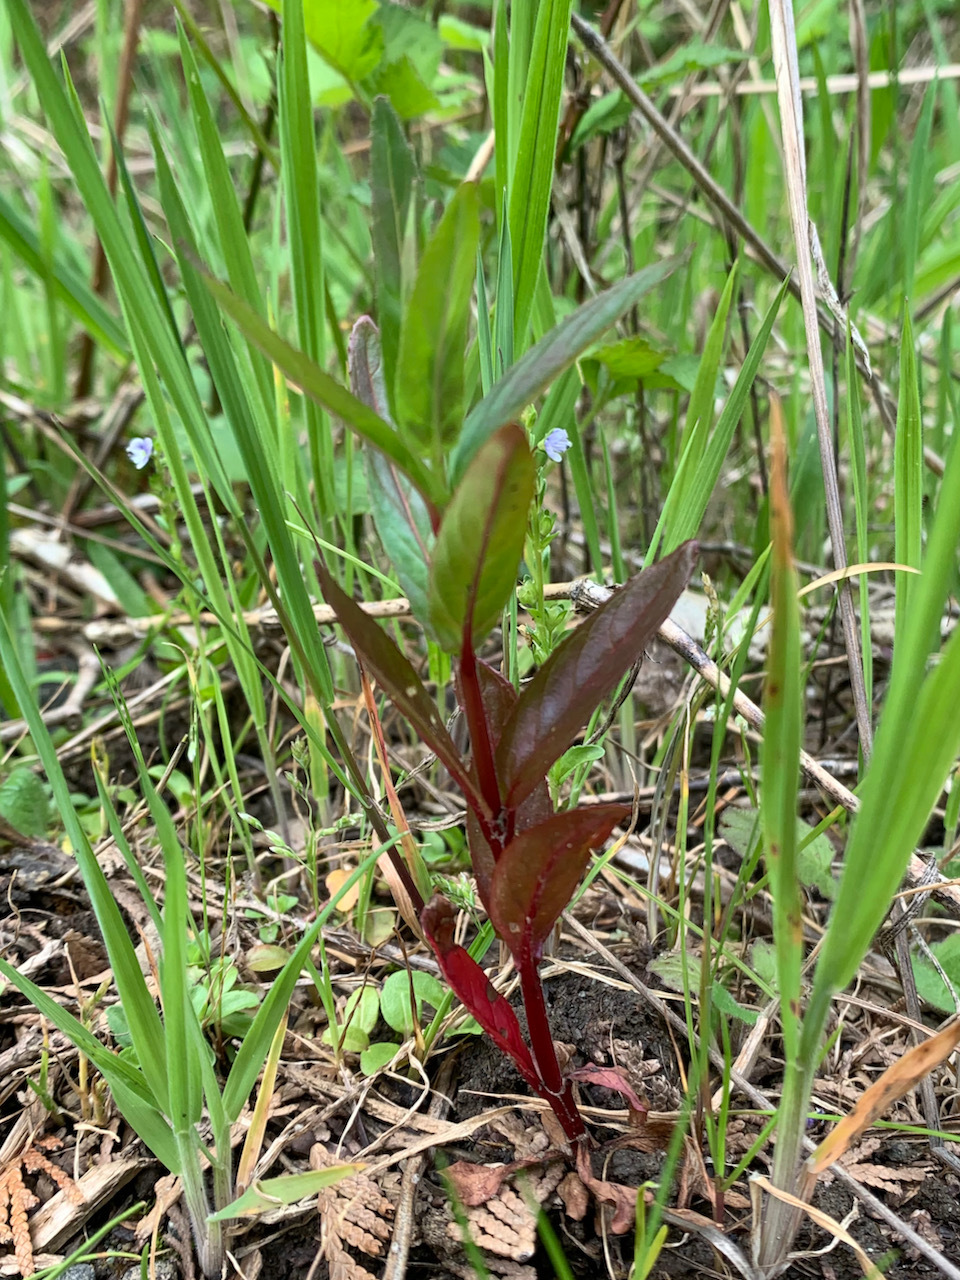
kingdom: Plantae
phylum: Tracheophyta
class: Magnoliopsida
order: Myrtales
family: Onagraceae
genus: Epilobium
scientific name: Epilobium ciliatum
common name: American willowherb
